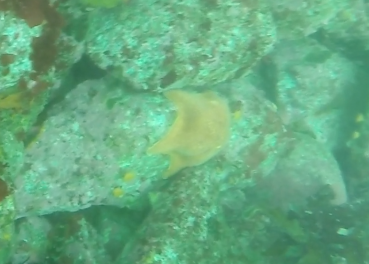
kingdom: Animalia
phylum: Echinodermata
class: Asteroidea
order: Valvatida
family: Asterinidae
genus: Patiria
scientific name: Patiria miniata
